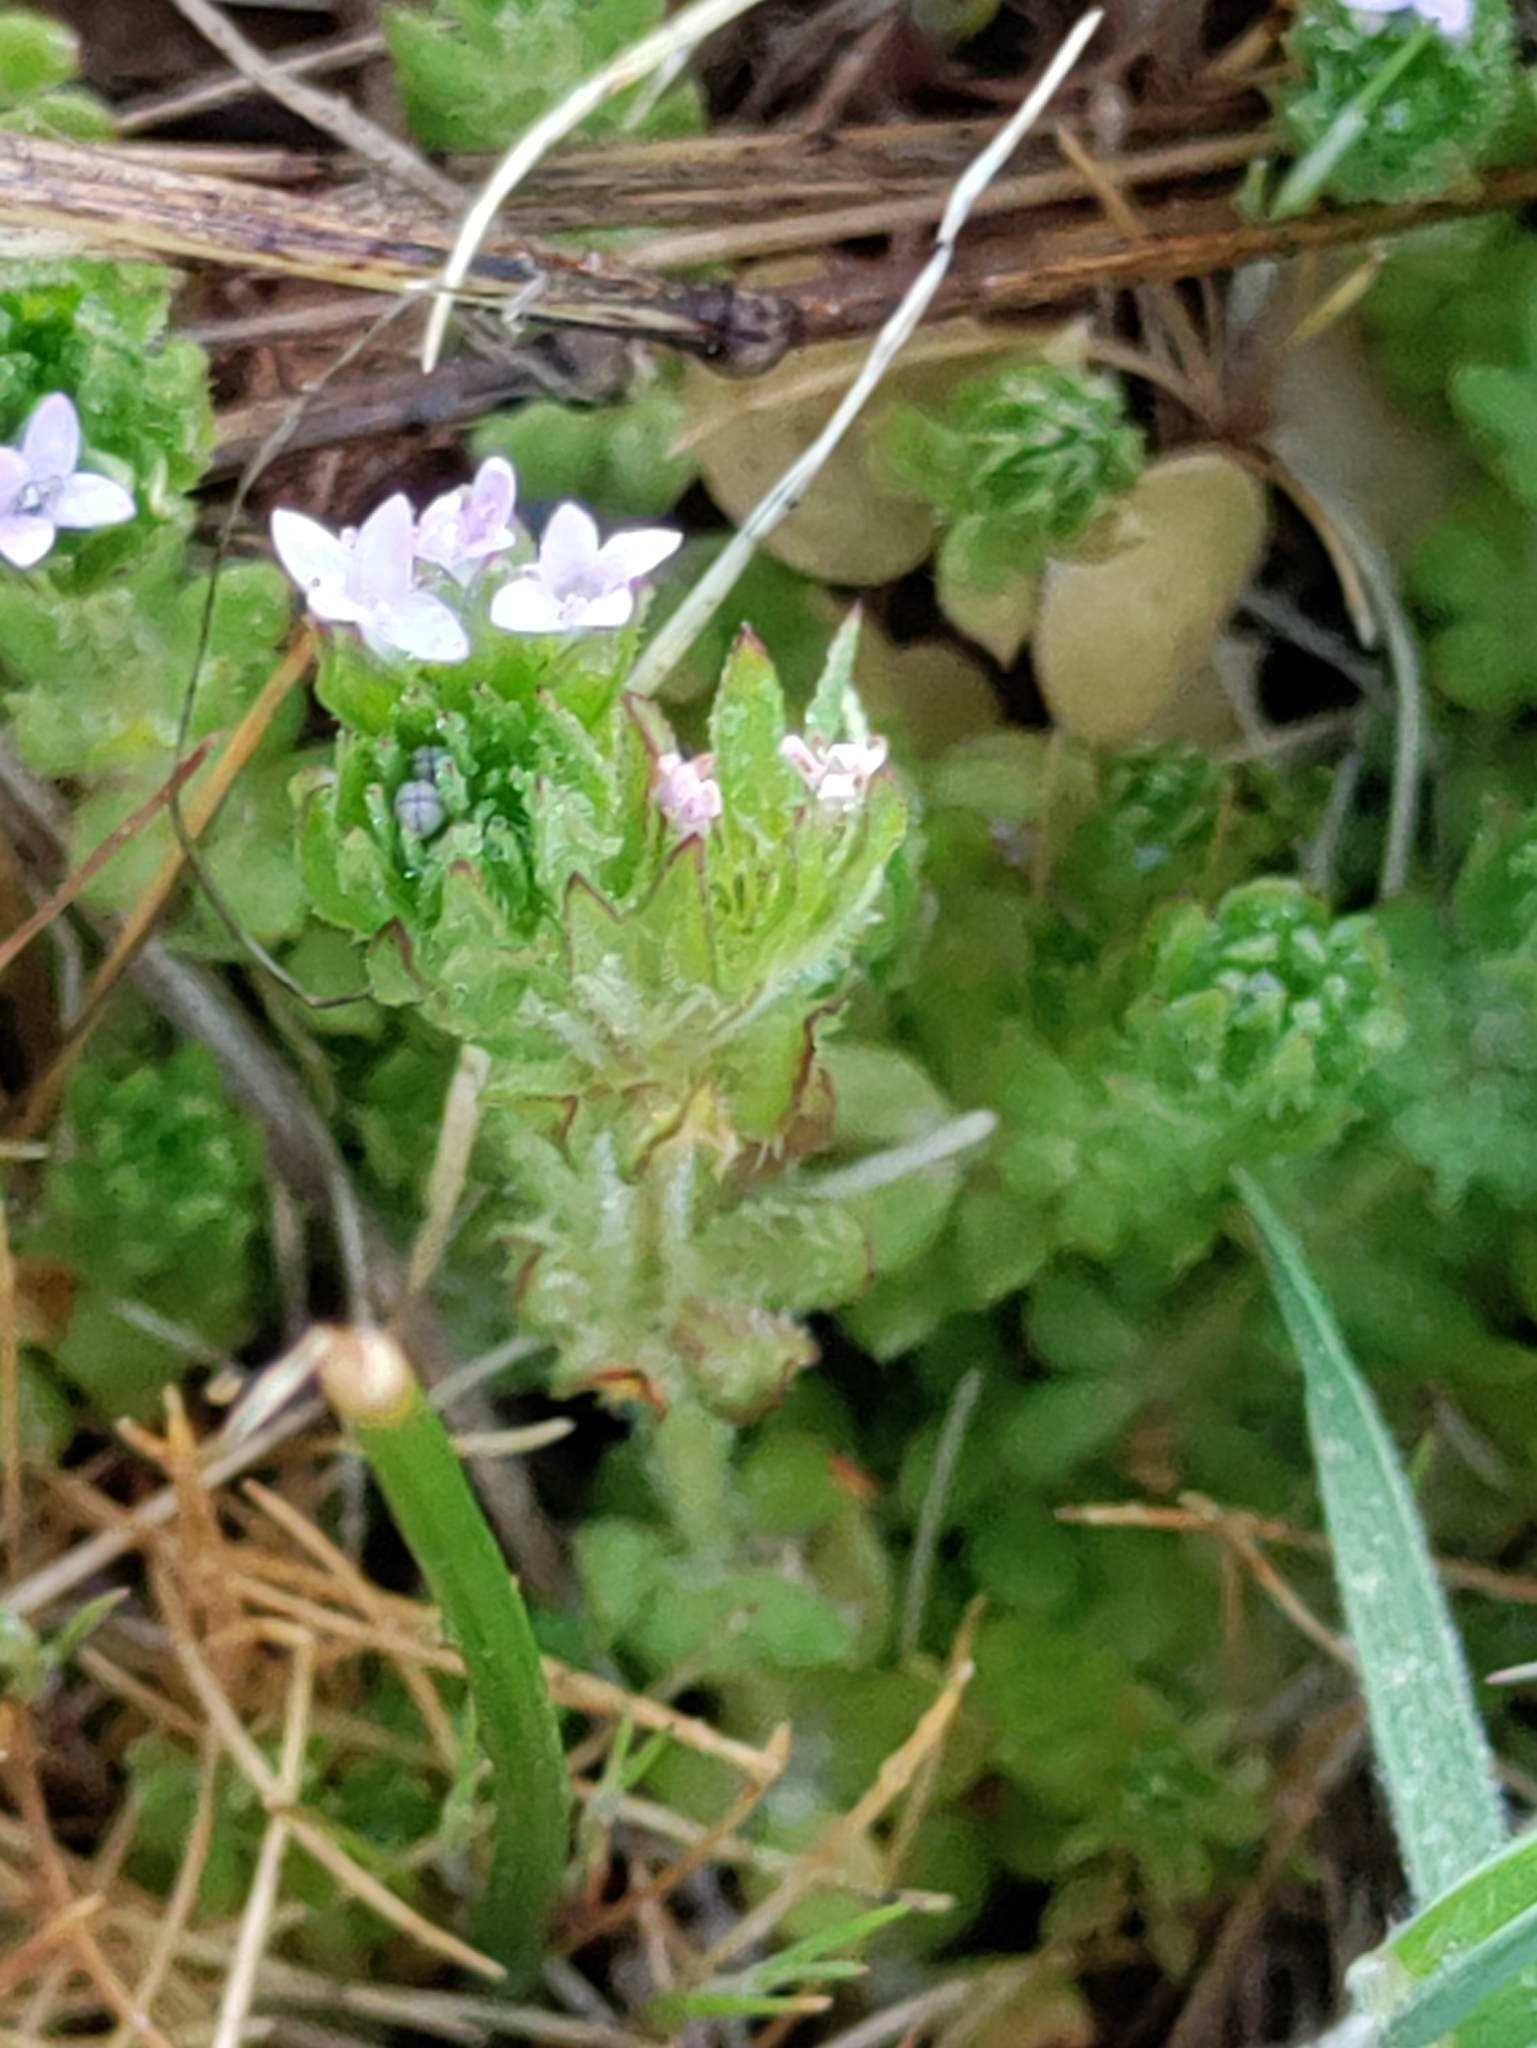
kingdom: Plantae
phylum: Tracheophyta
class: Magnoliopsida
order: Gentianales
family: Rubiaceae
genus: Sherardia
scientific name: Sherardia arvensis
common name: Field madder
